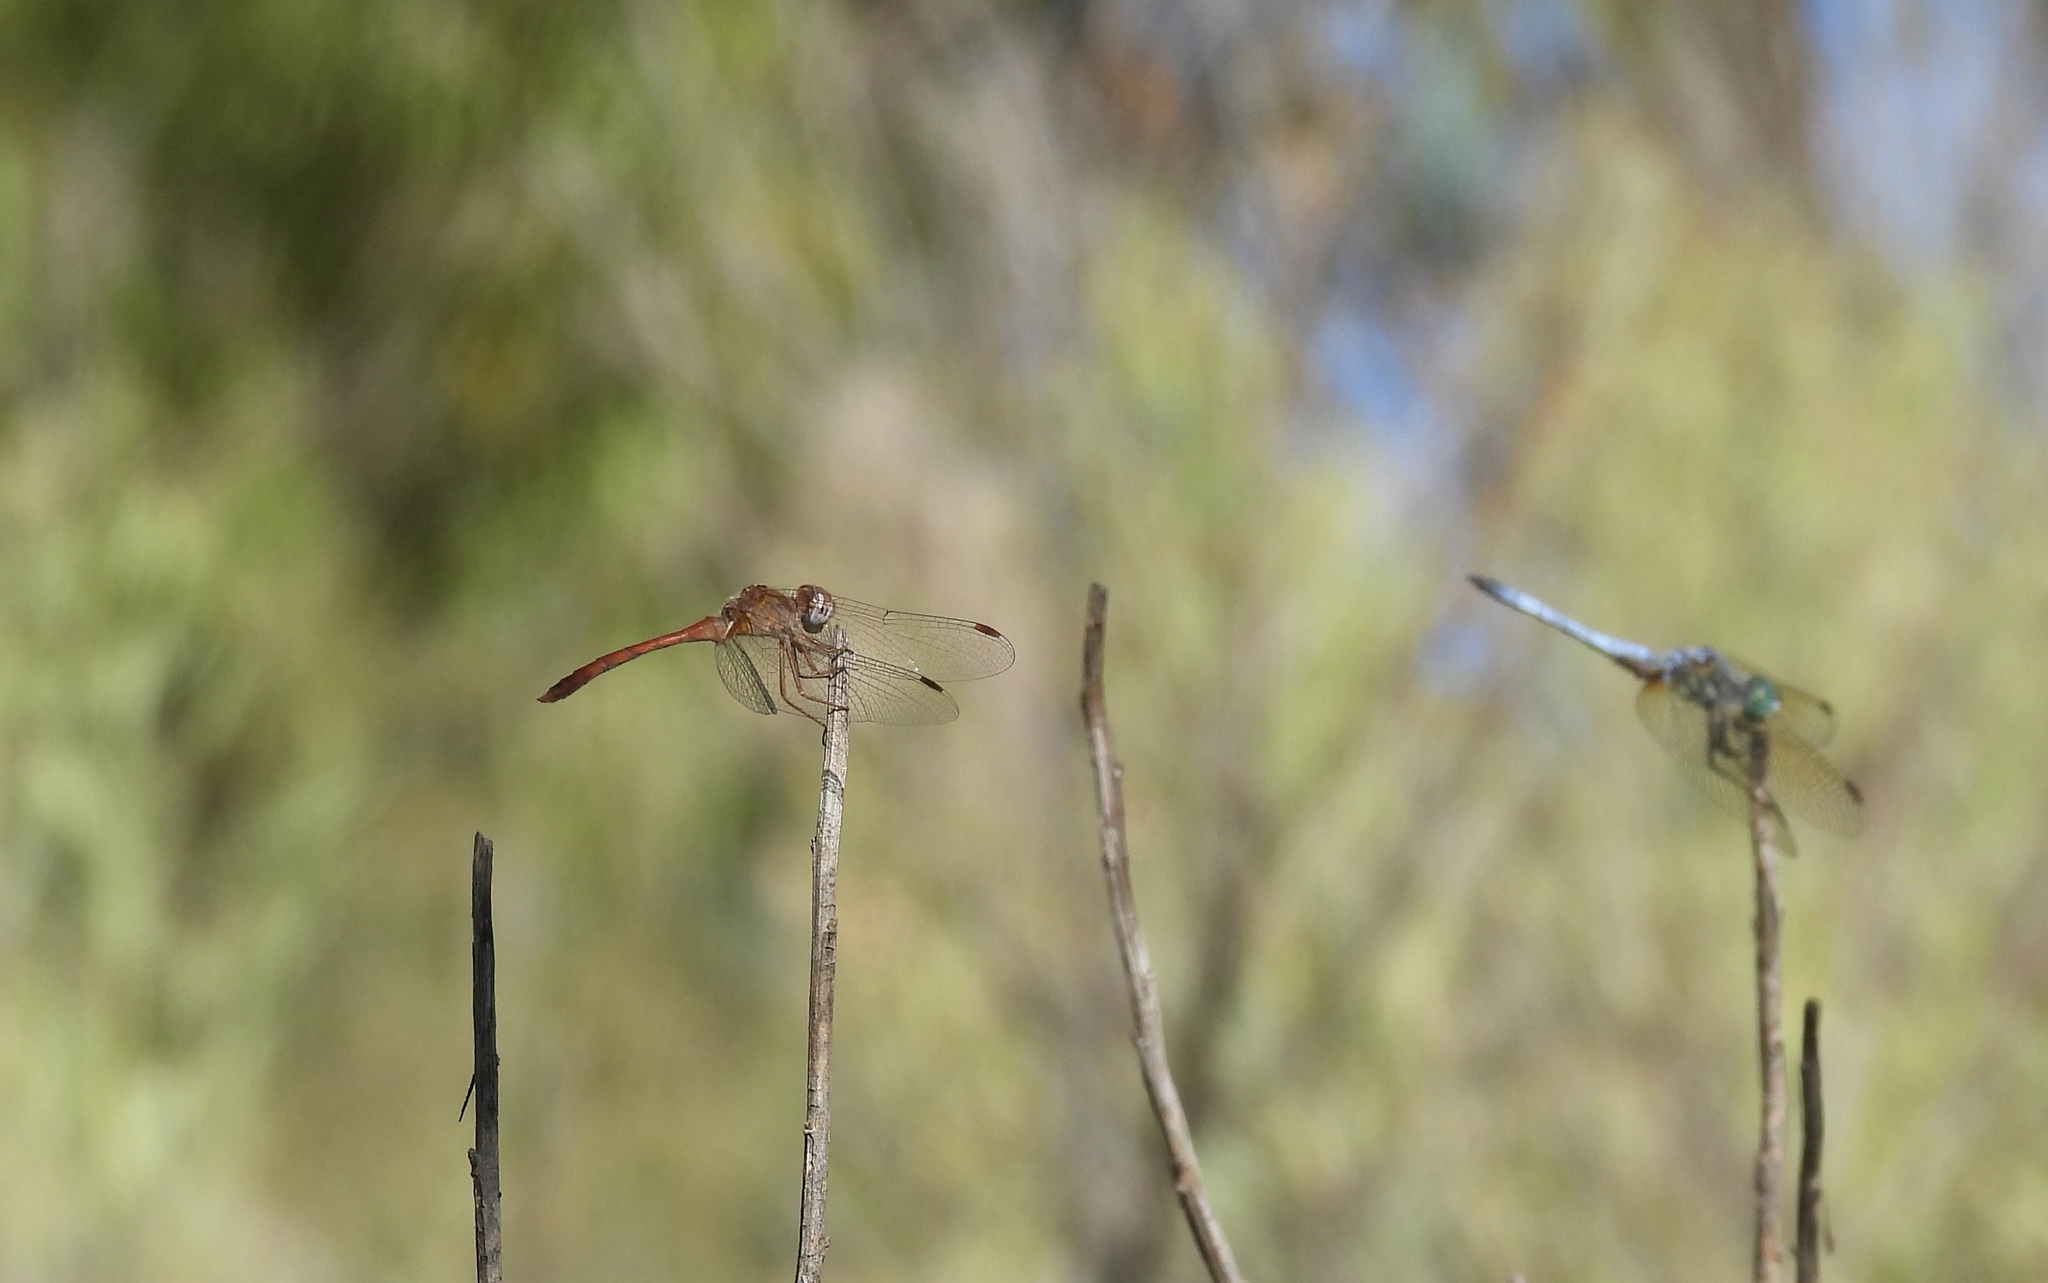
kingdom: Animalia
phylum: Arthropoda
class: Insecta
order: Odonata
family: Libellulidae
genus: Sympetrum
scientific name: Sympetrum vicinum
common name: Autumn meadowhawk
